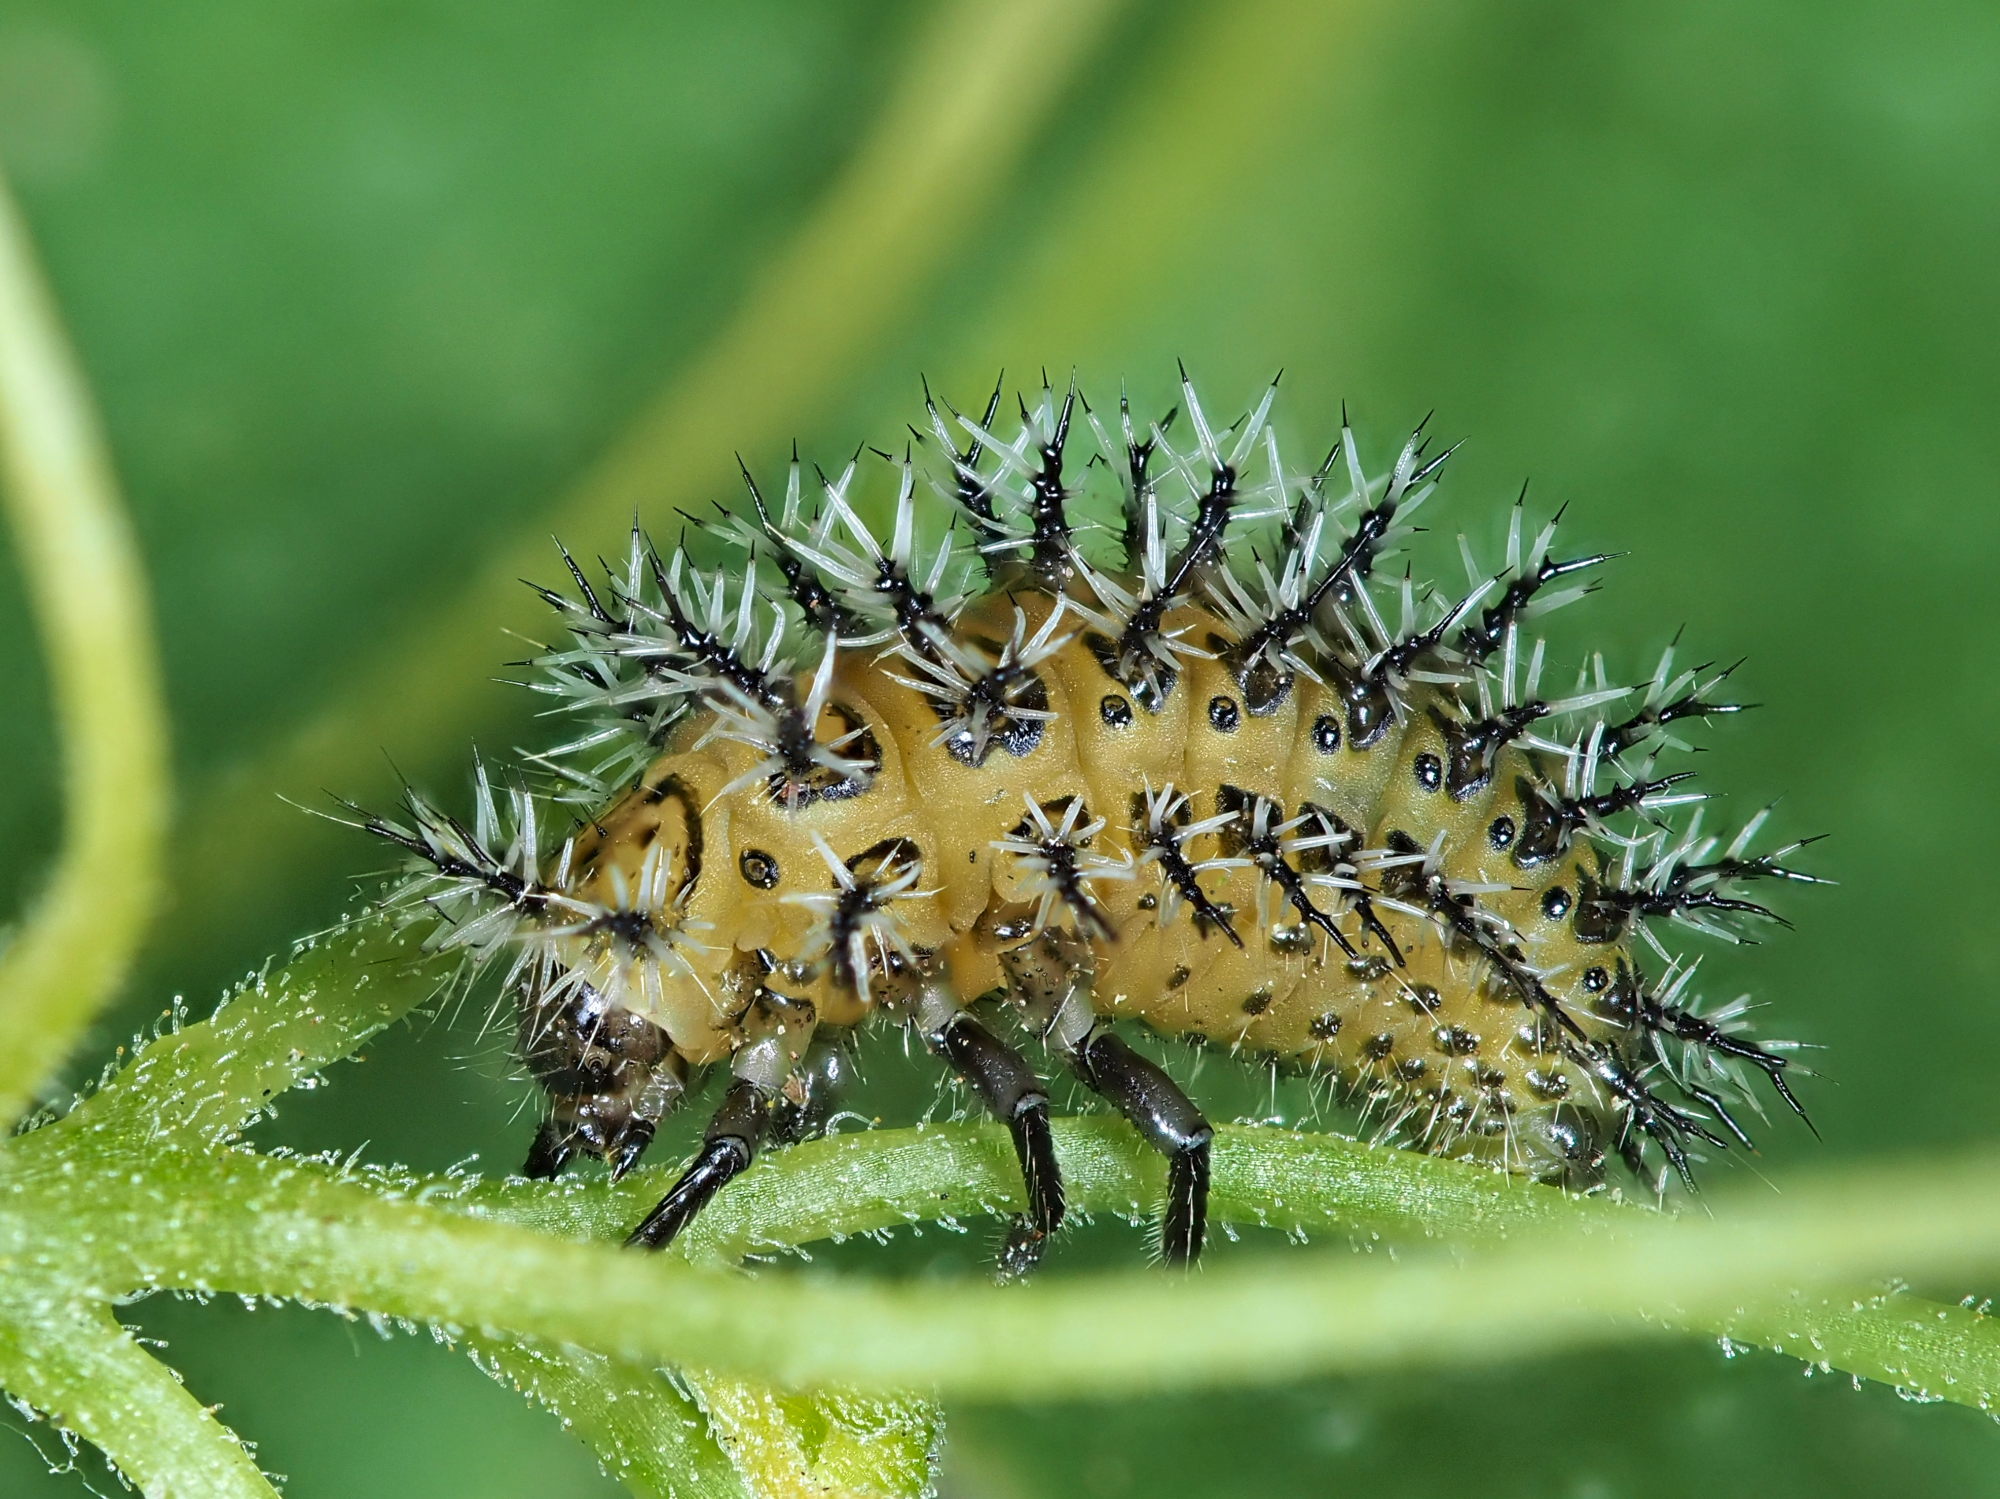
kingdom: Animalia
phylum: Arthropoda
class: Insecta
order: Coleoptera
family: Coccinellidae
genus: Henosepilachna
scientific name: Henosepilachna argus
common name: Bryony ladybird
